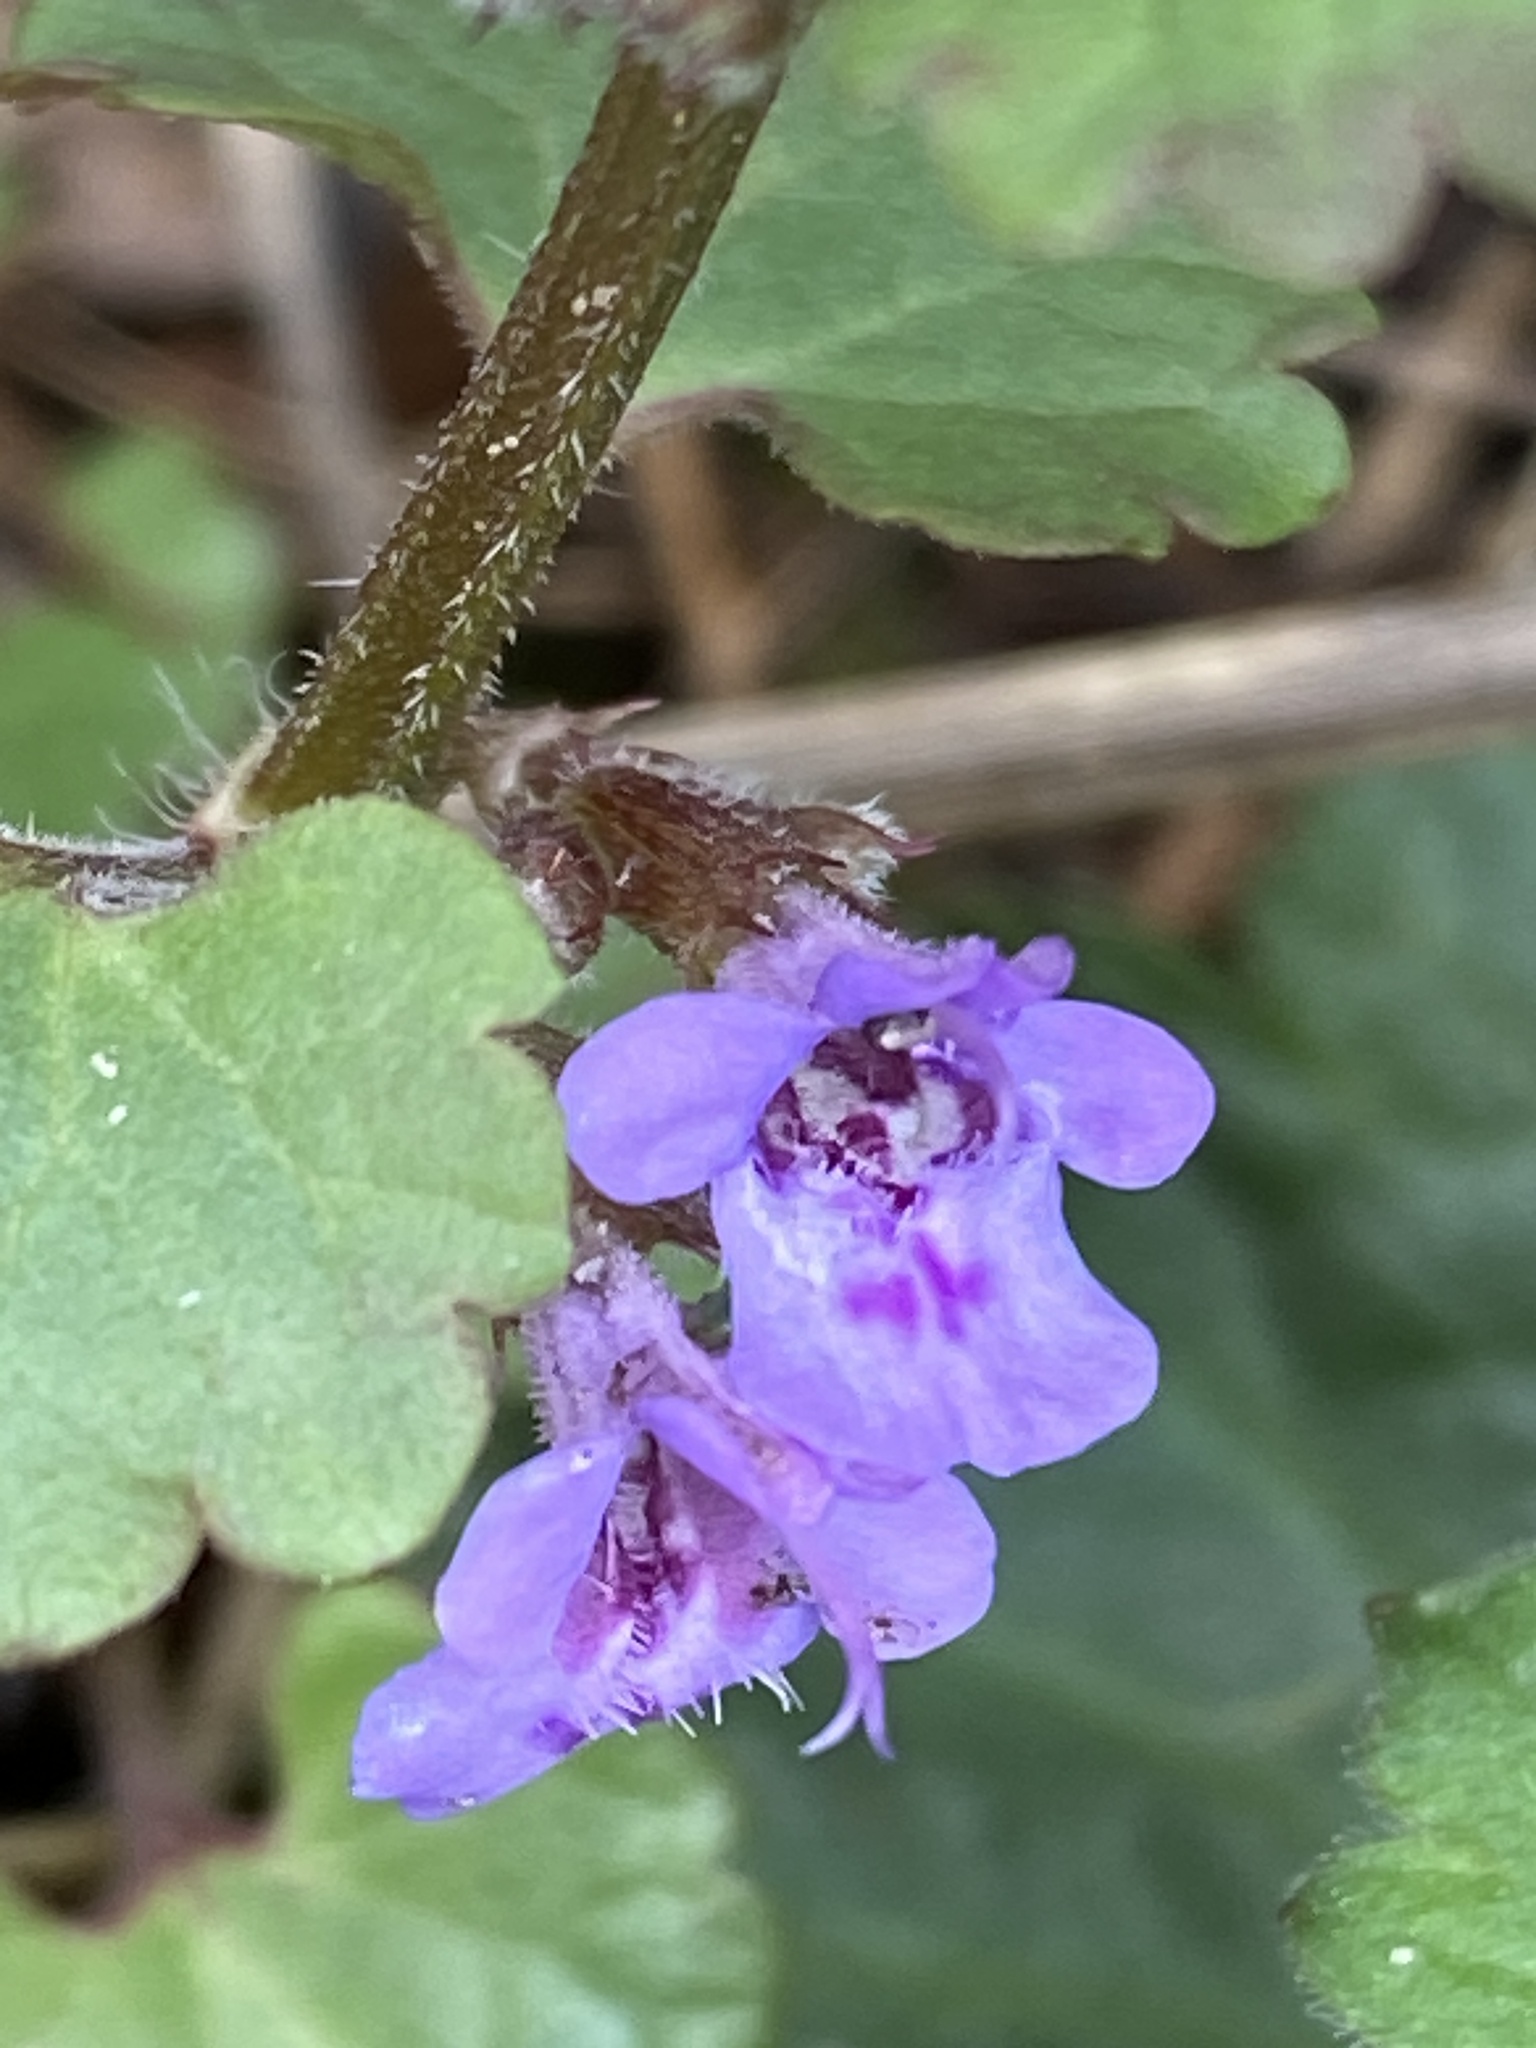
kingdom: Plantae
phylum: Tracheophyta
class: Magnoliopsida
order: Lamiales
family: Lamiaceae
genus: Glechoma
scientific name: Glechoma hederacea
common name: Ground ivy
